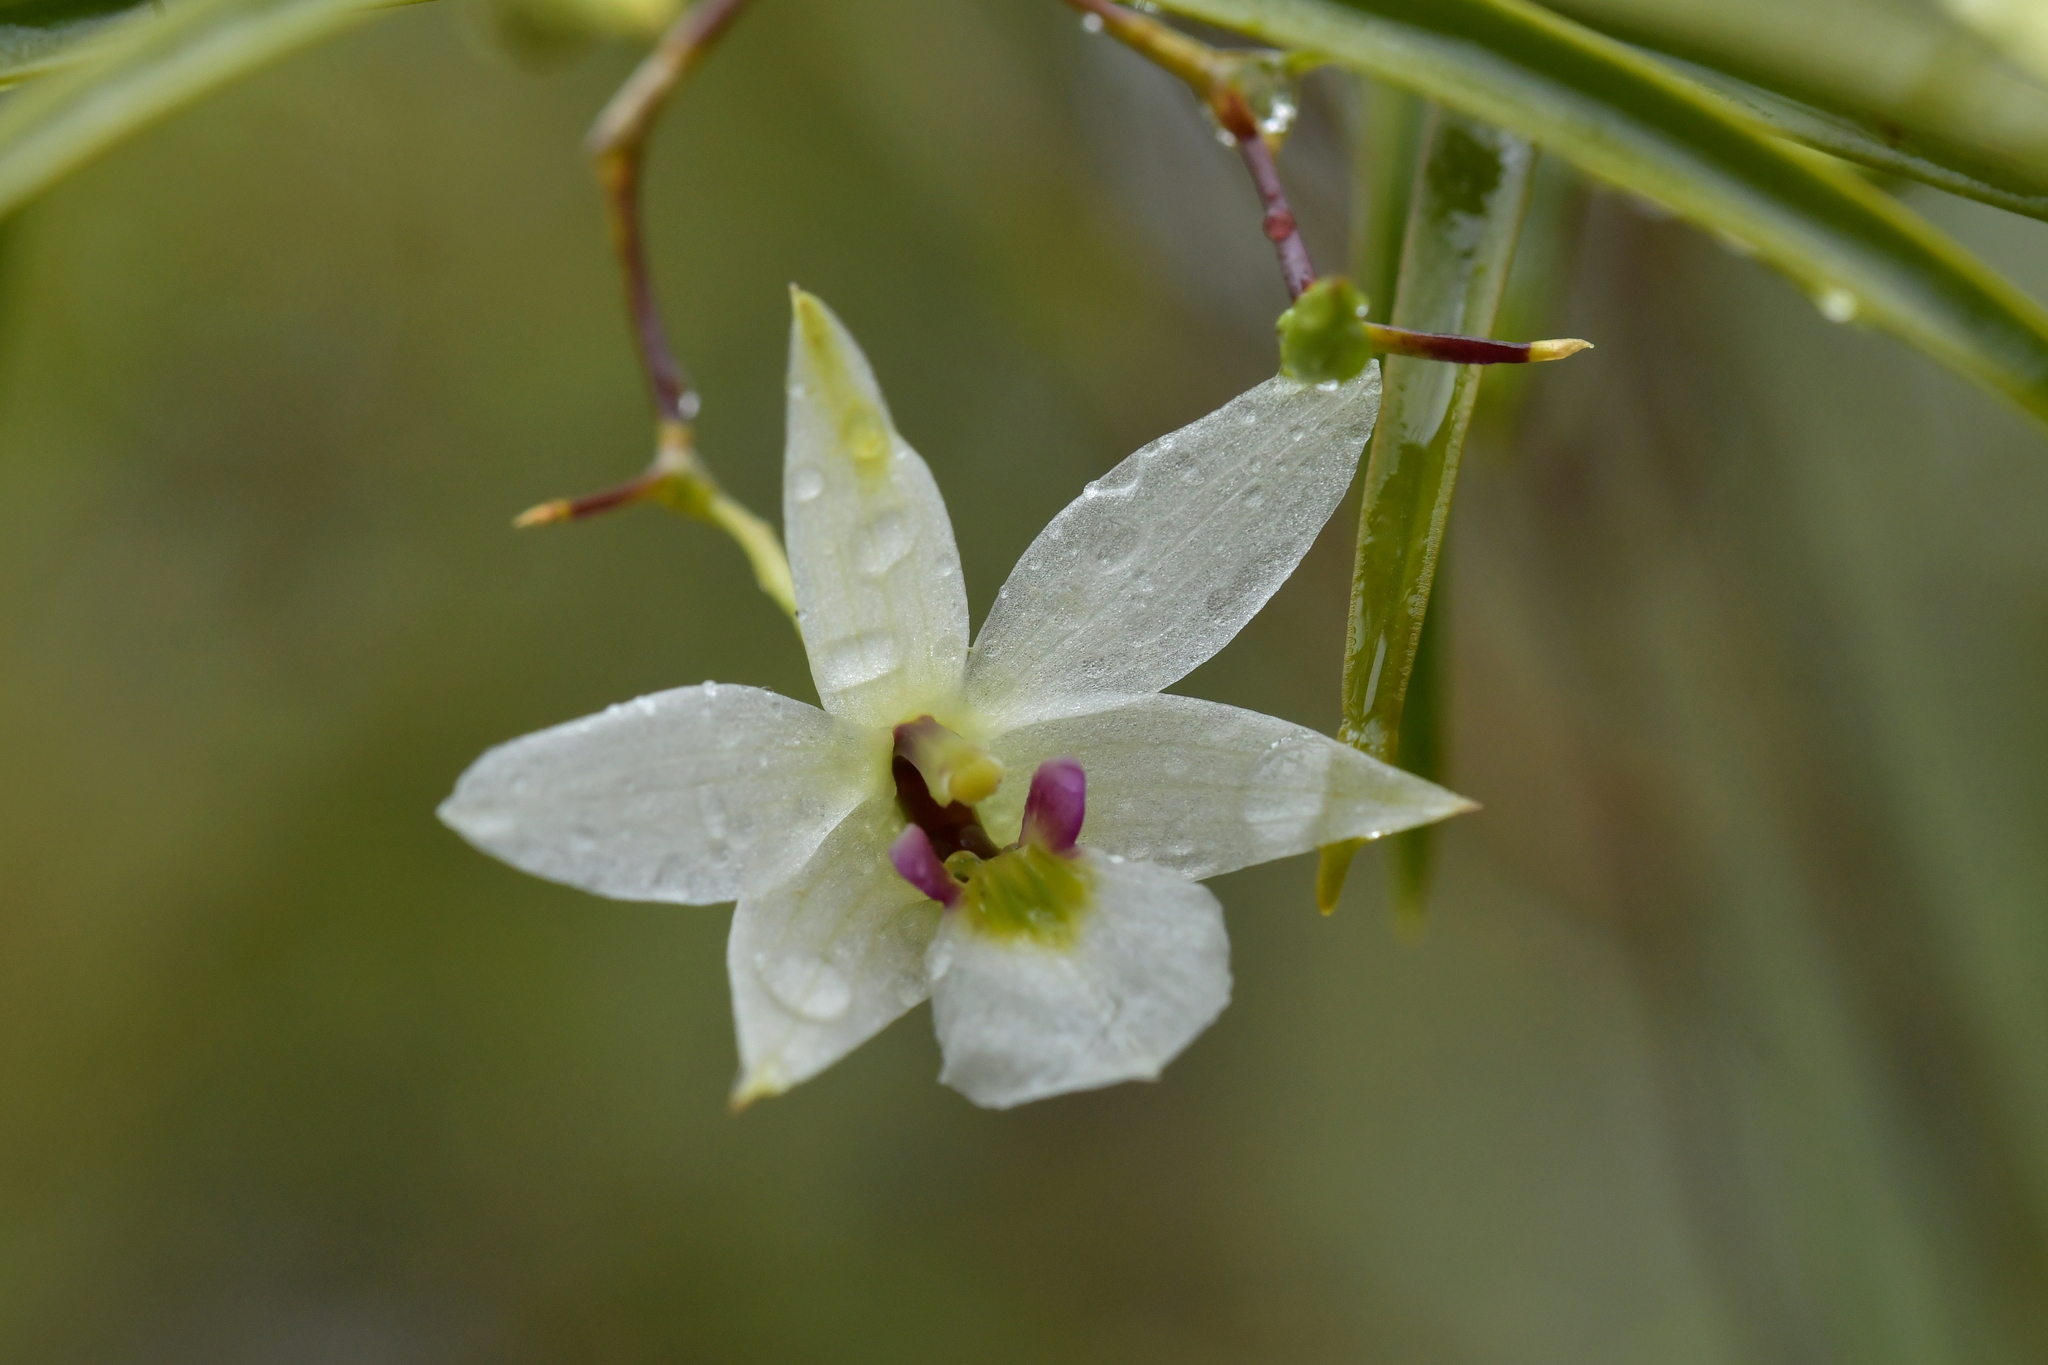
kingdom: Plantae
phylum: Tracheophyta
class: Liliopsida
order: Asparagales
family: Orchidaceae
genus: Dendrobium
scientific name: Dendrobium cunninghamii
